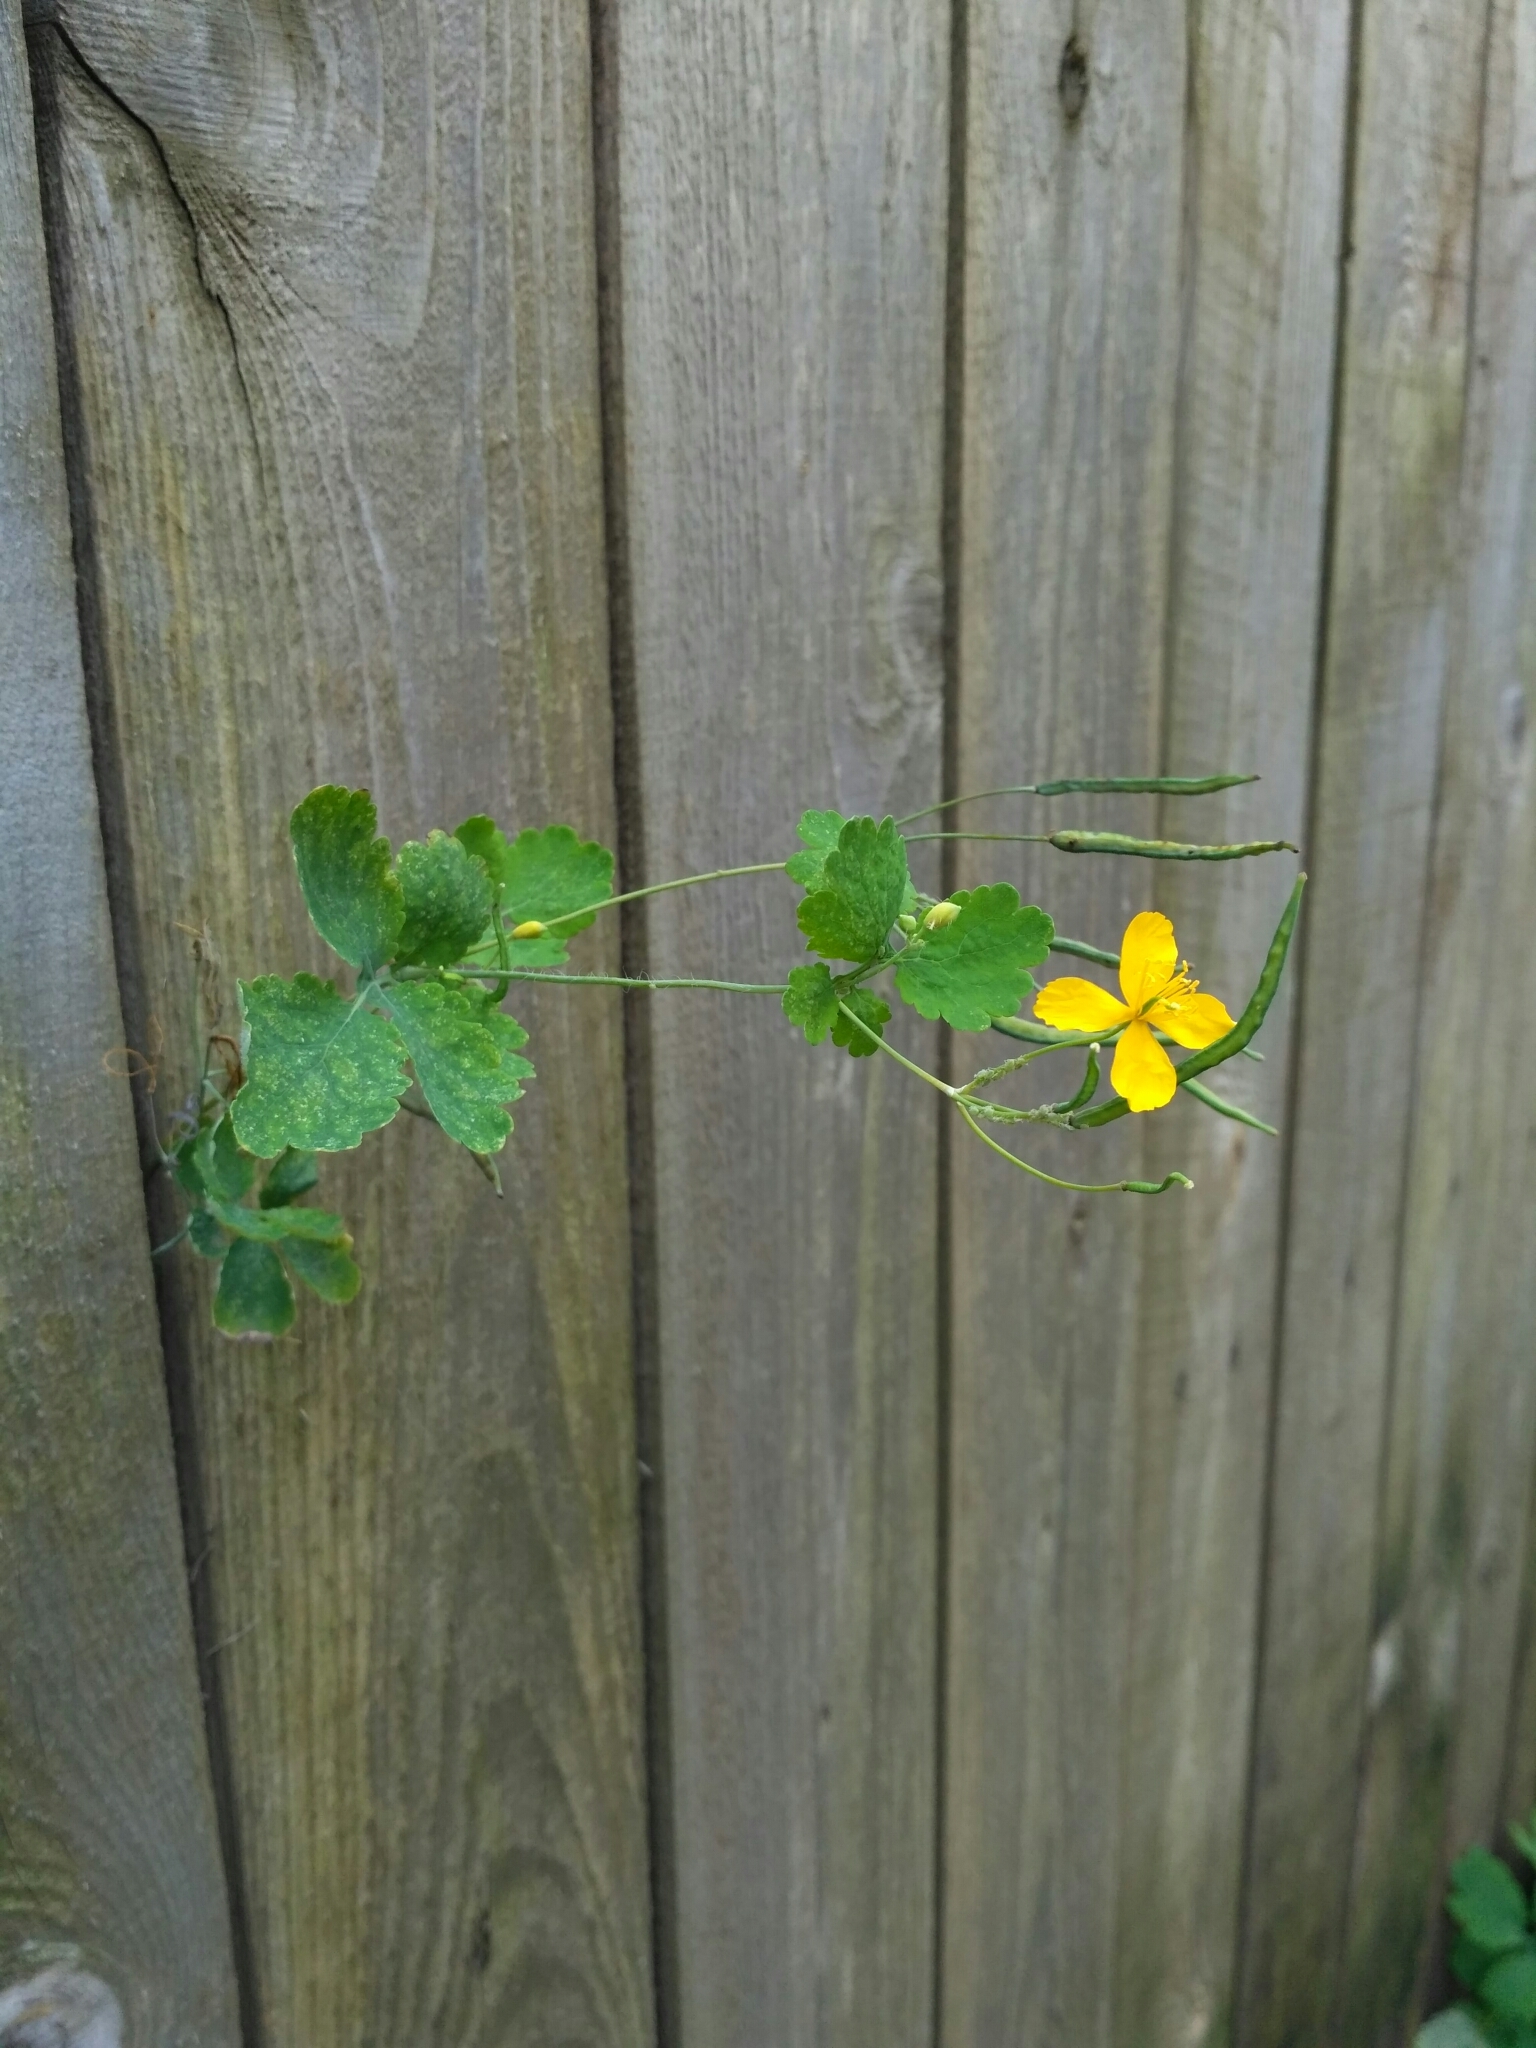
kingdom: Plantae
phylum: Tracheophyta
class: Magnoliopsida
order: Ranunculales
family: Papaveraceae
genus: Chelidonium
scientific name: Chelidonium majus
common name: Greater celandine
